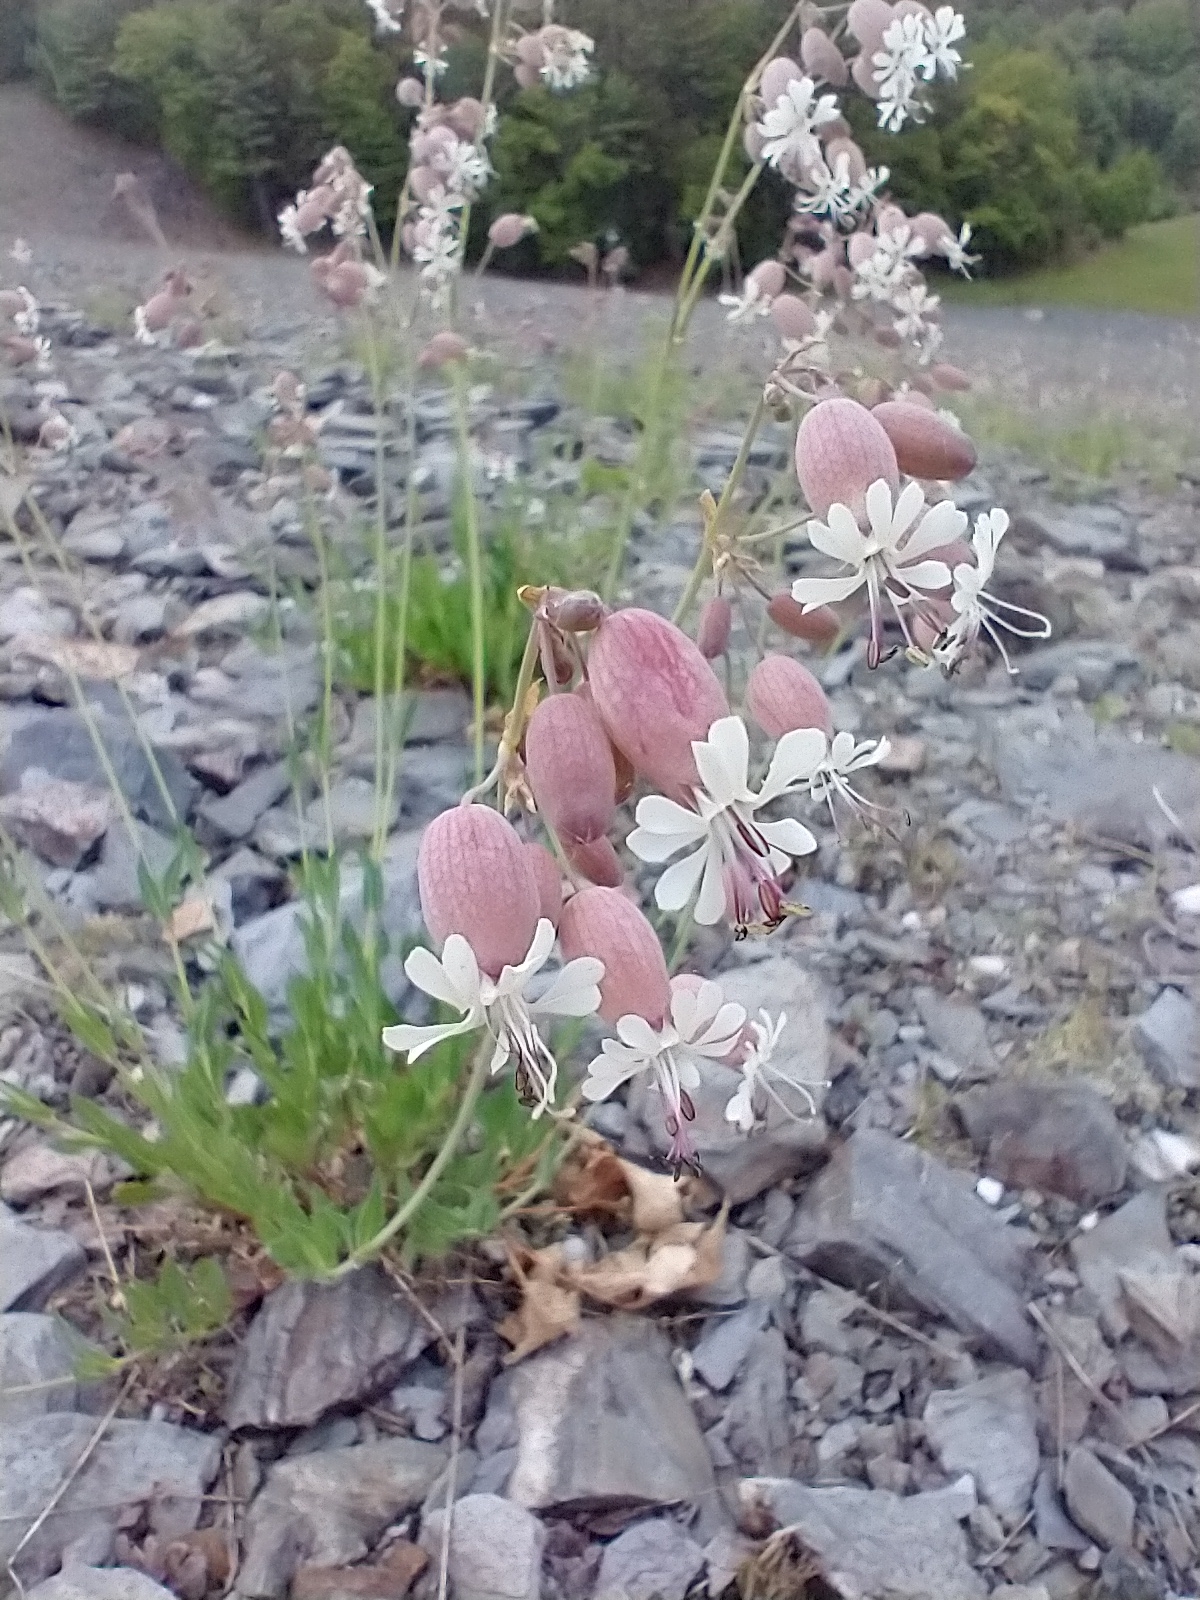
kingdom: Plantae
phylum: Tracheophyta
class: Magnoliopsida
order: Caryophyllales
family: Caryophyllaceae
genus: Silene
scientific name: Silene vulgaris
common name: Bladder campion
